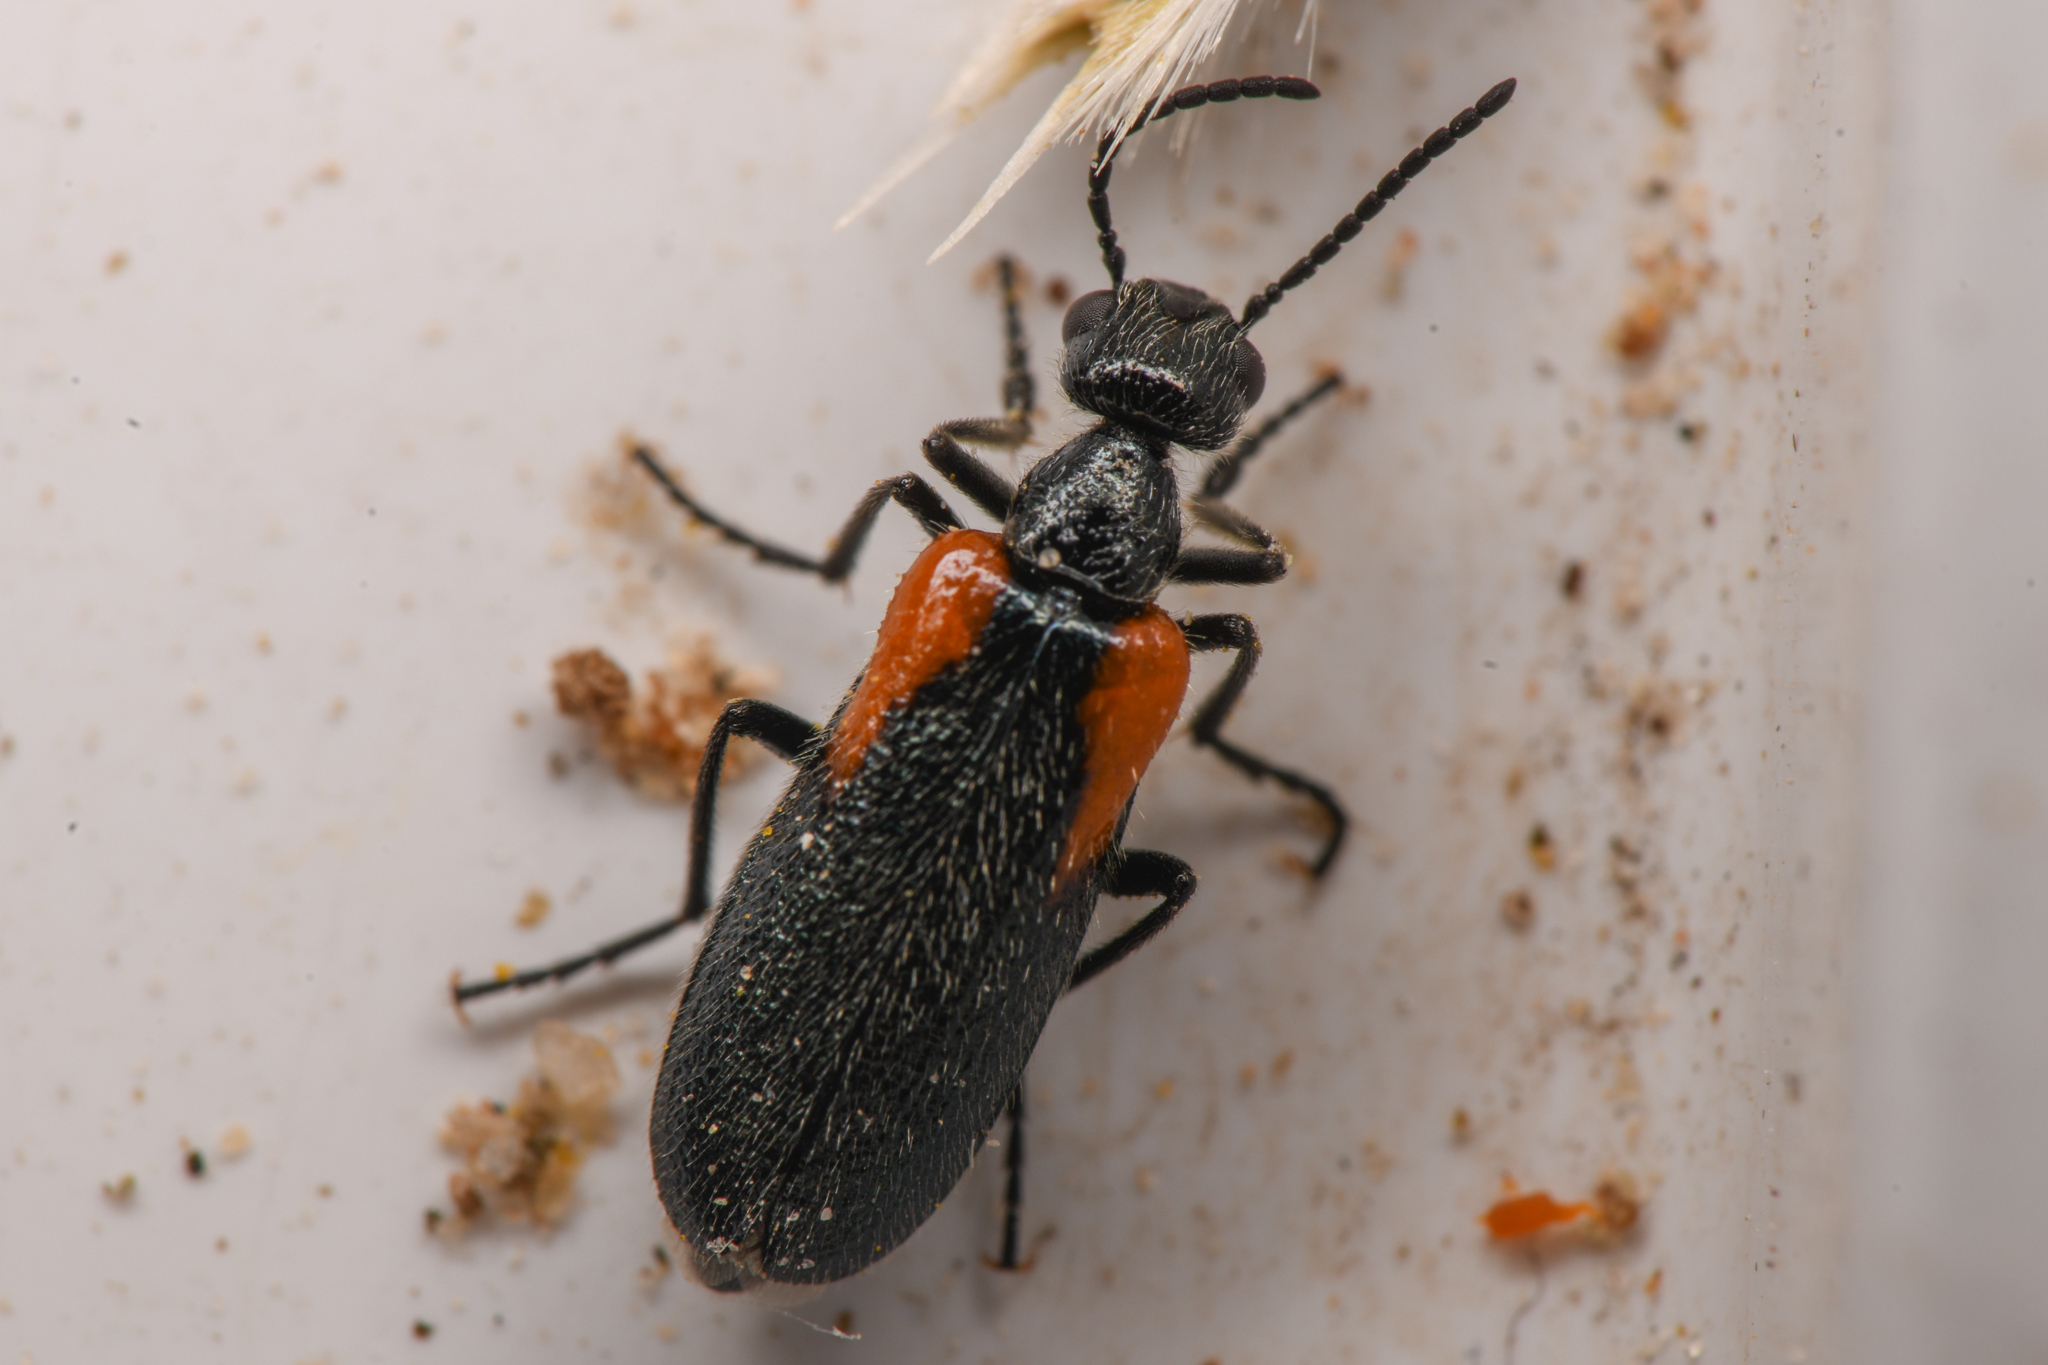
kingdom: Animalia
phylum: Arthropoda
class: Insecta
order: Coleoptera
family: Meloidae
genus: Eupompha
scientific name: Eupompha elegans
